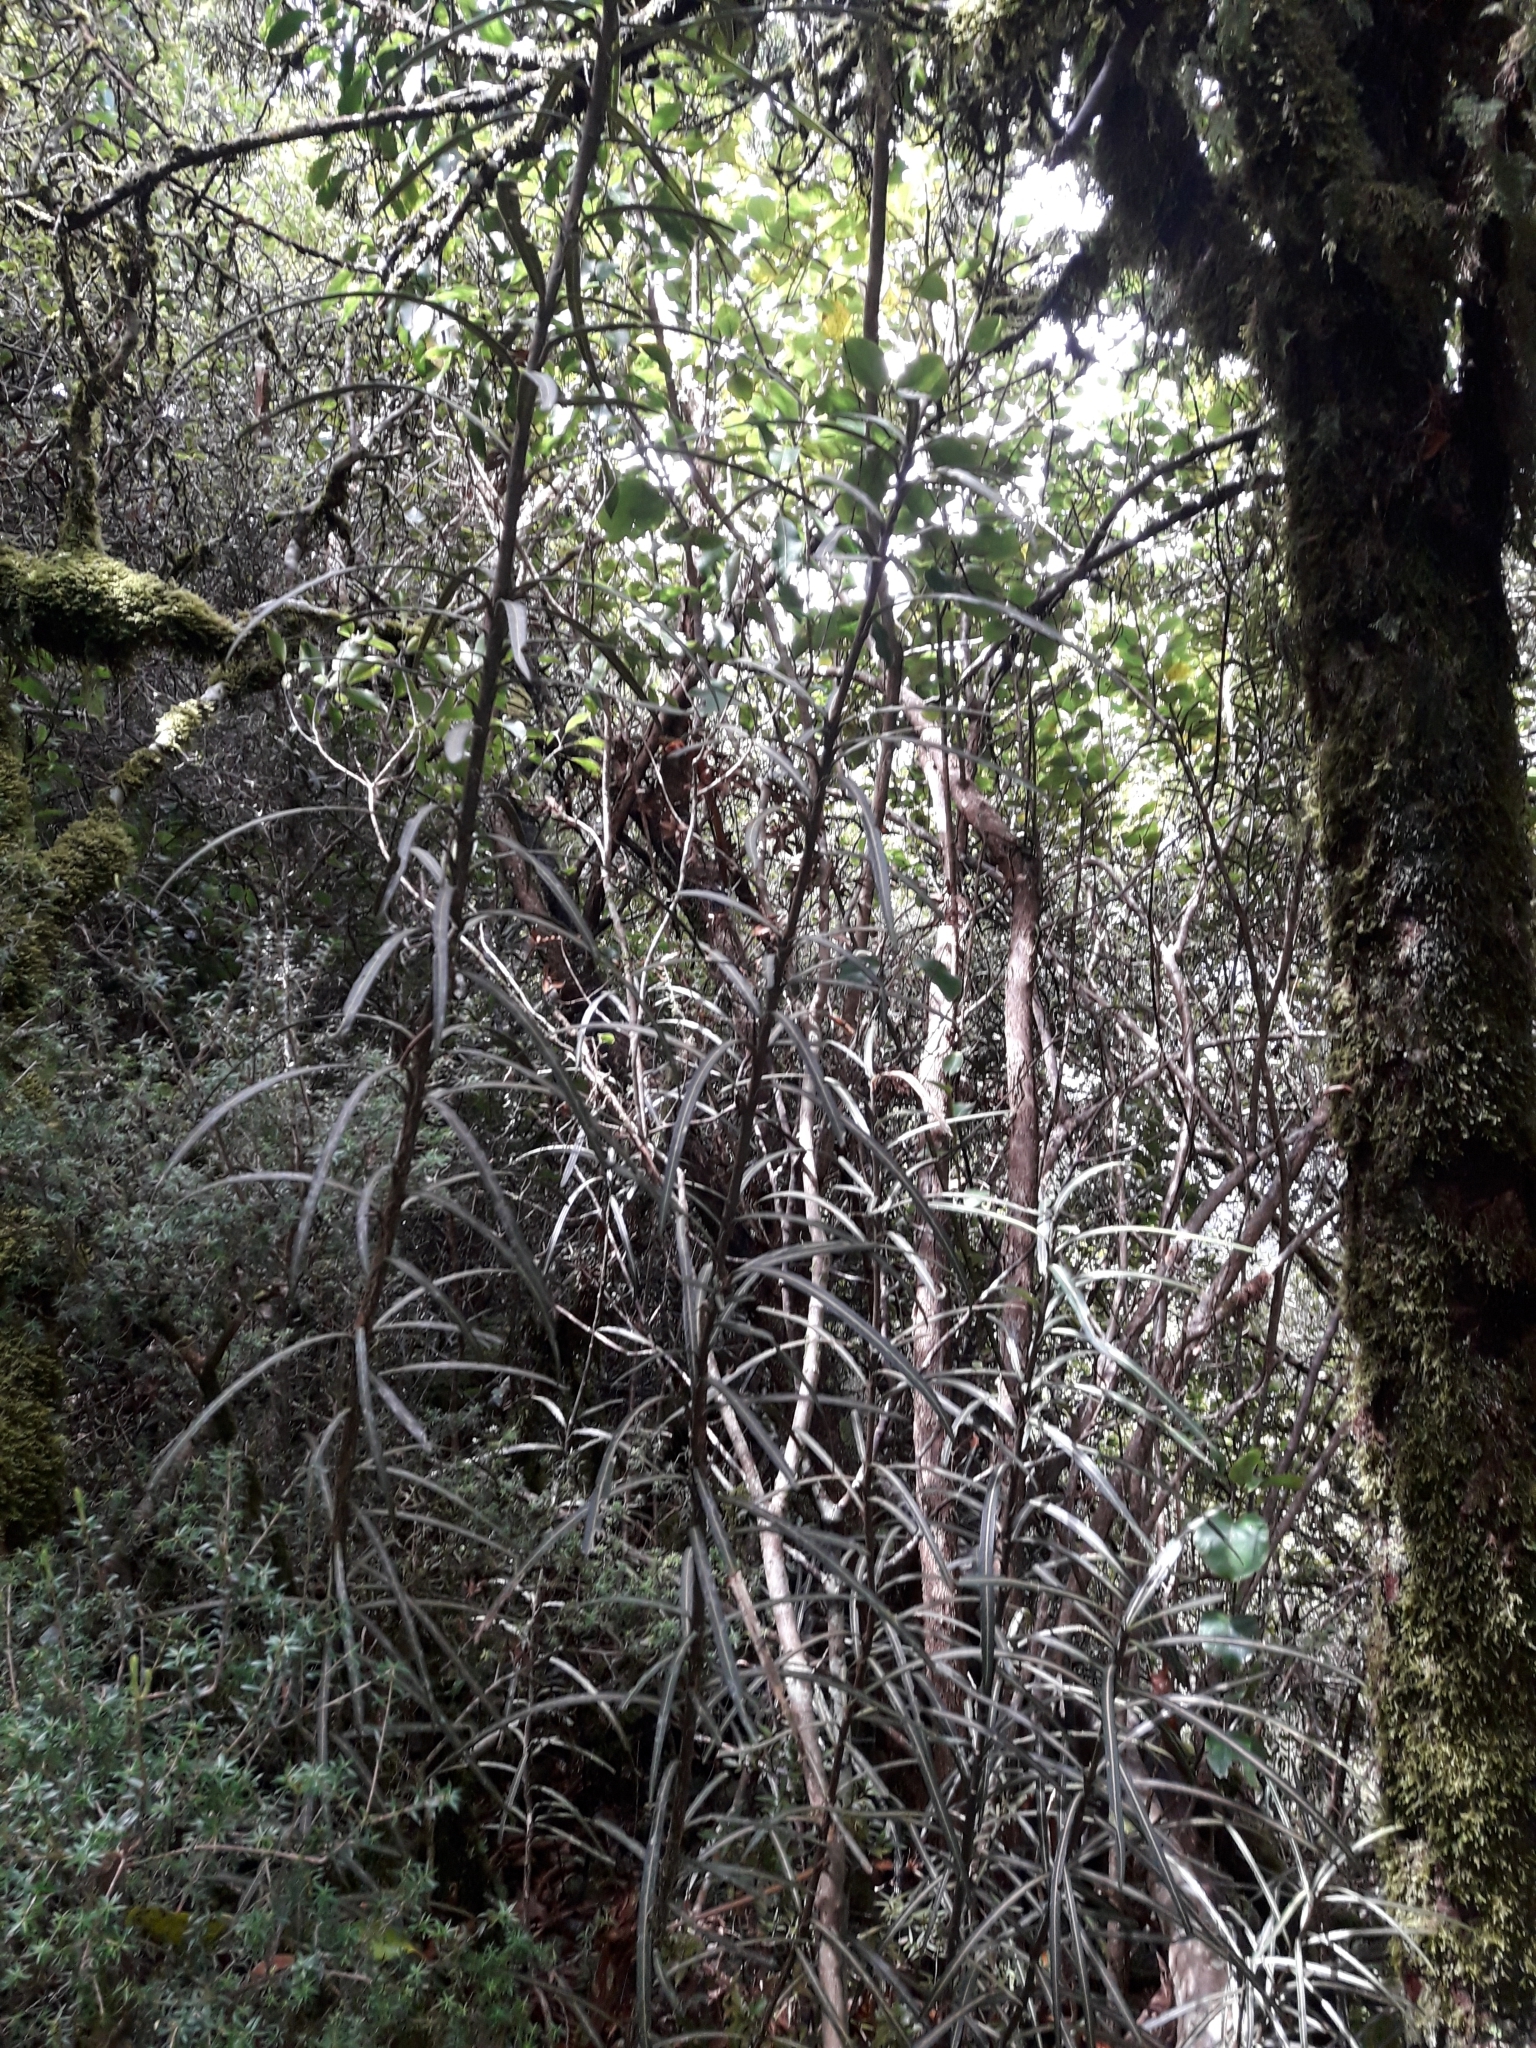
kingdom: Plantae
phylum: Tracheophyta
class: Magnoliopsida
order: Apiales
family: Araliaceae
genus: Pseudopanax
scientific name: Pseudopanax linearis
